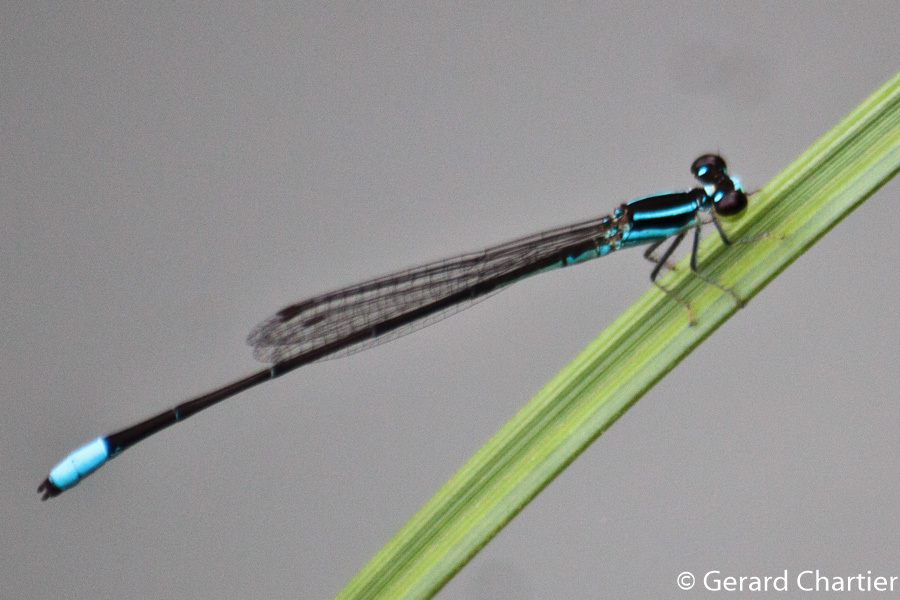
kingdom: Animalia
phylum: Arthropoda
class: Insecta
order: Odonata
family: Coenagrionidae
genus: Argiocnemis
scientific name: Argiocnemis rubescens
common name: Red-tipped shadefly
